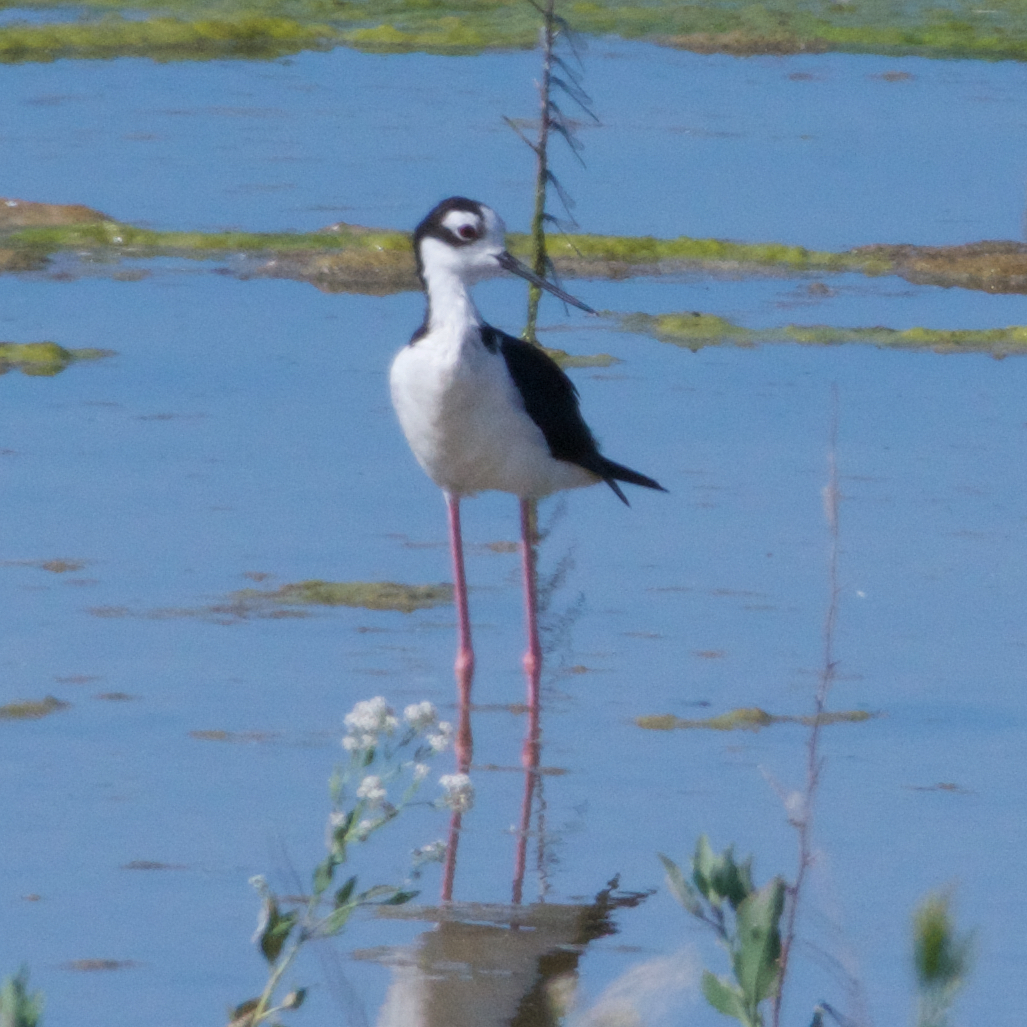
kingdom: Animalia
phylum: Chordata
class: Aves
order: Charadriiformes
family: Recurvirostridae
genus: Himantopus
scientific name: Himantopus mexicanus
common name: Black-necked stilt
